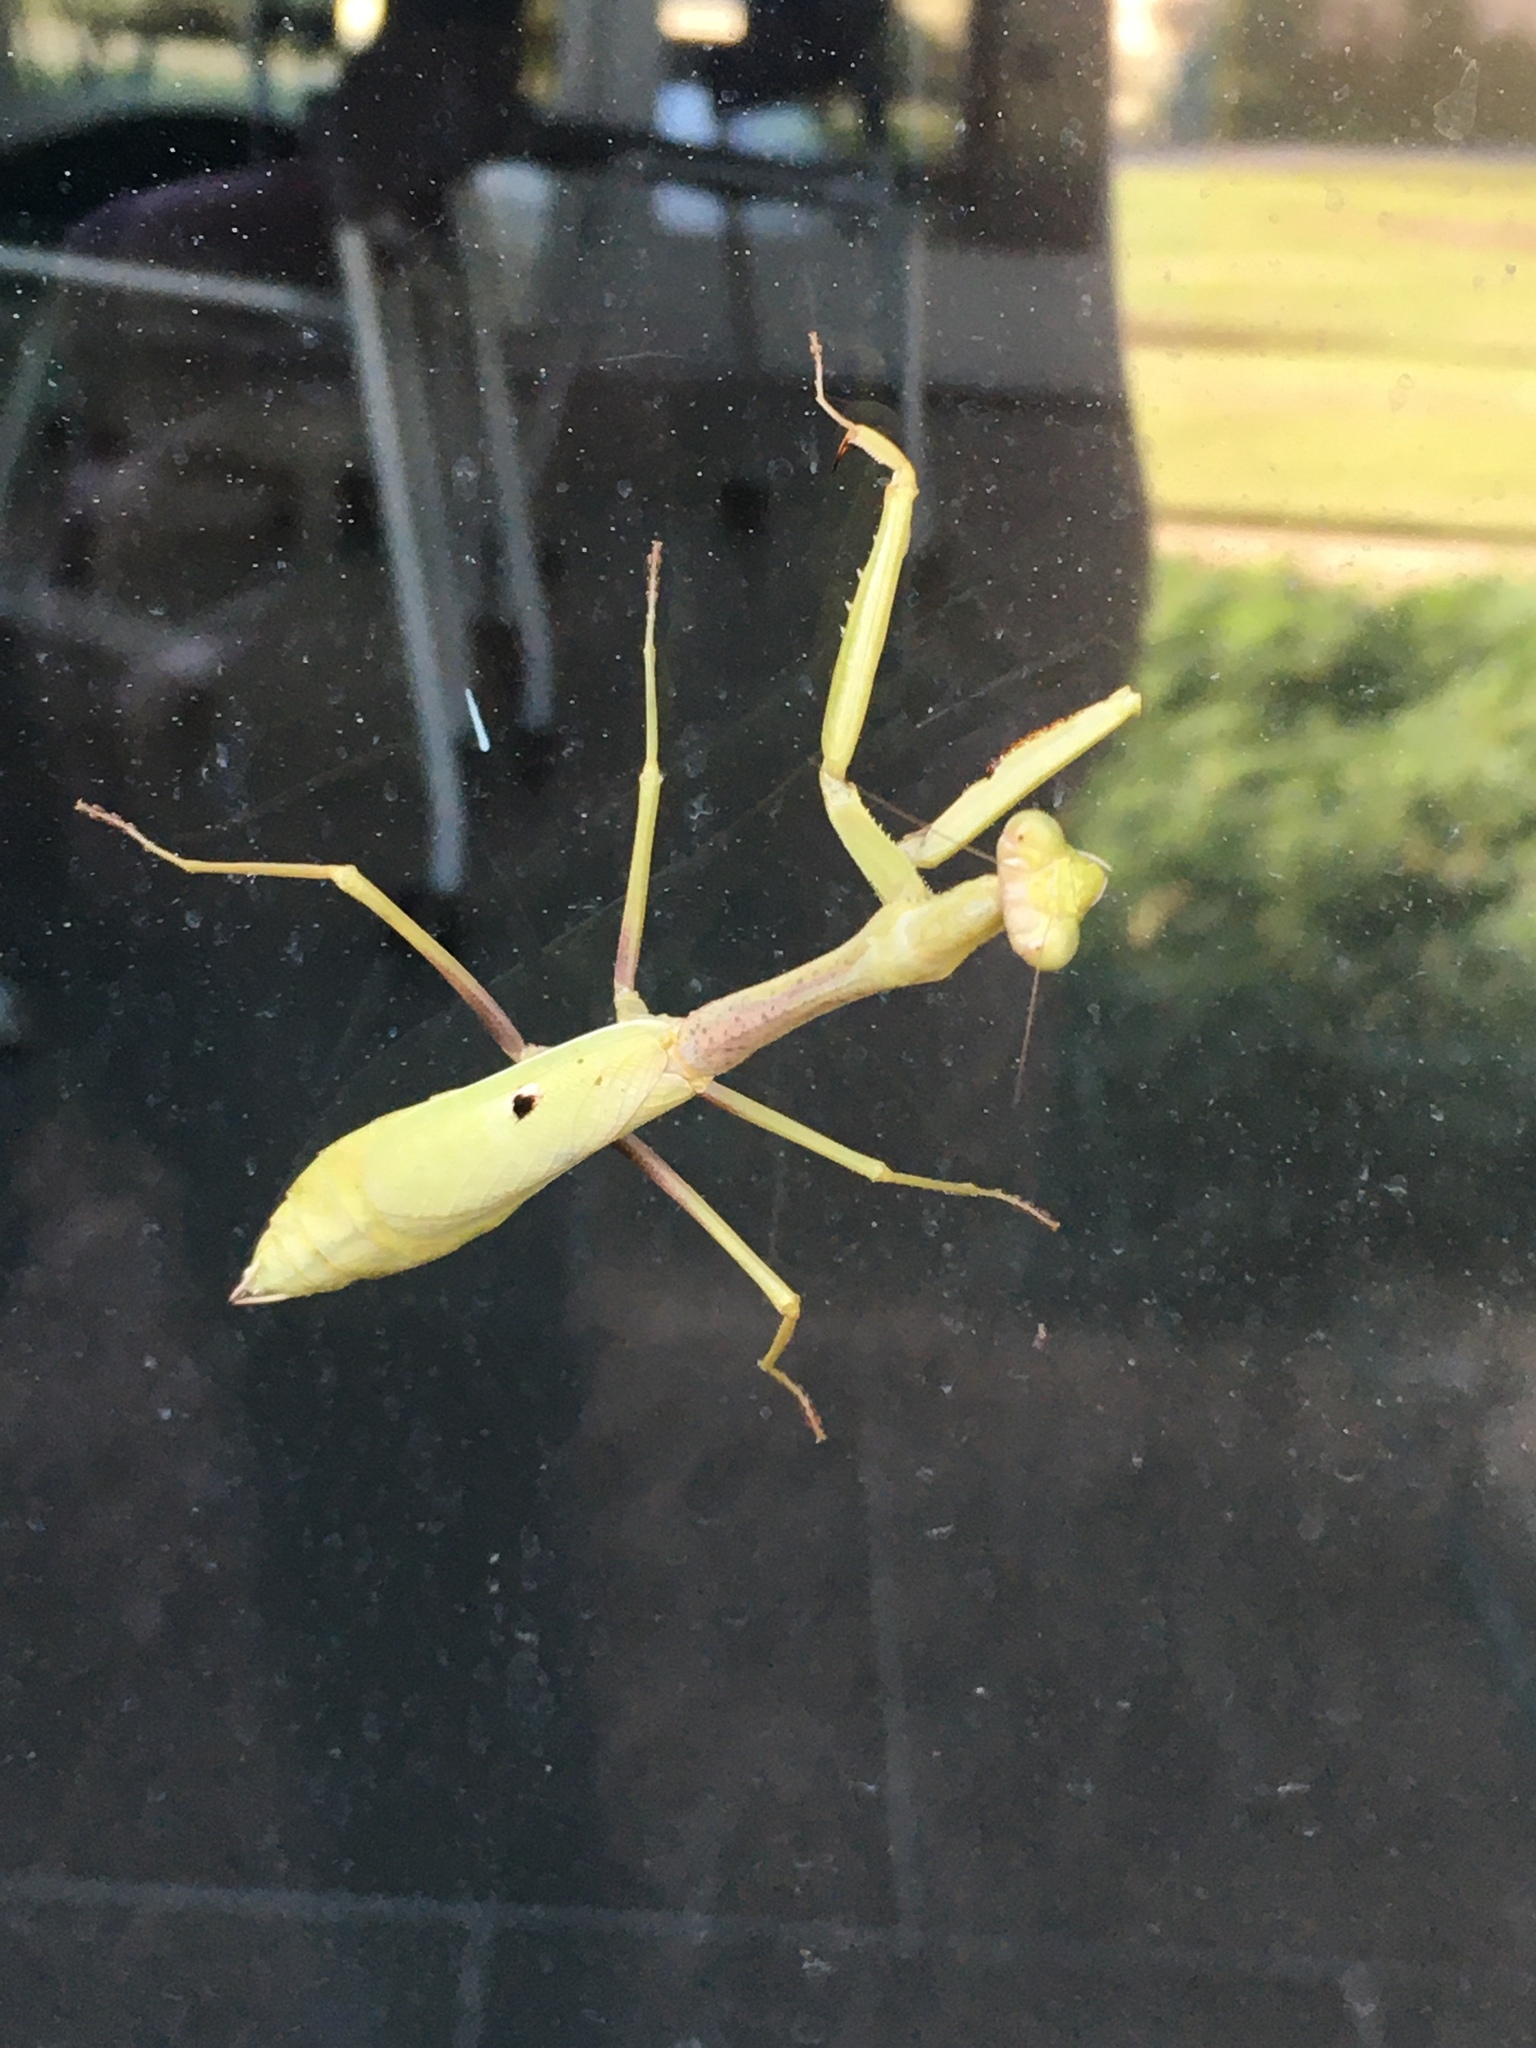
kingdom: Animalia
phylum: Arthropoda
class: Insecta
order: Mantodea
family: Mantidae
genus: Stagmomantis
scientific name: Stagmomantis carolina
